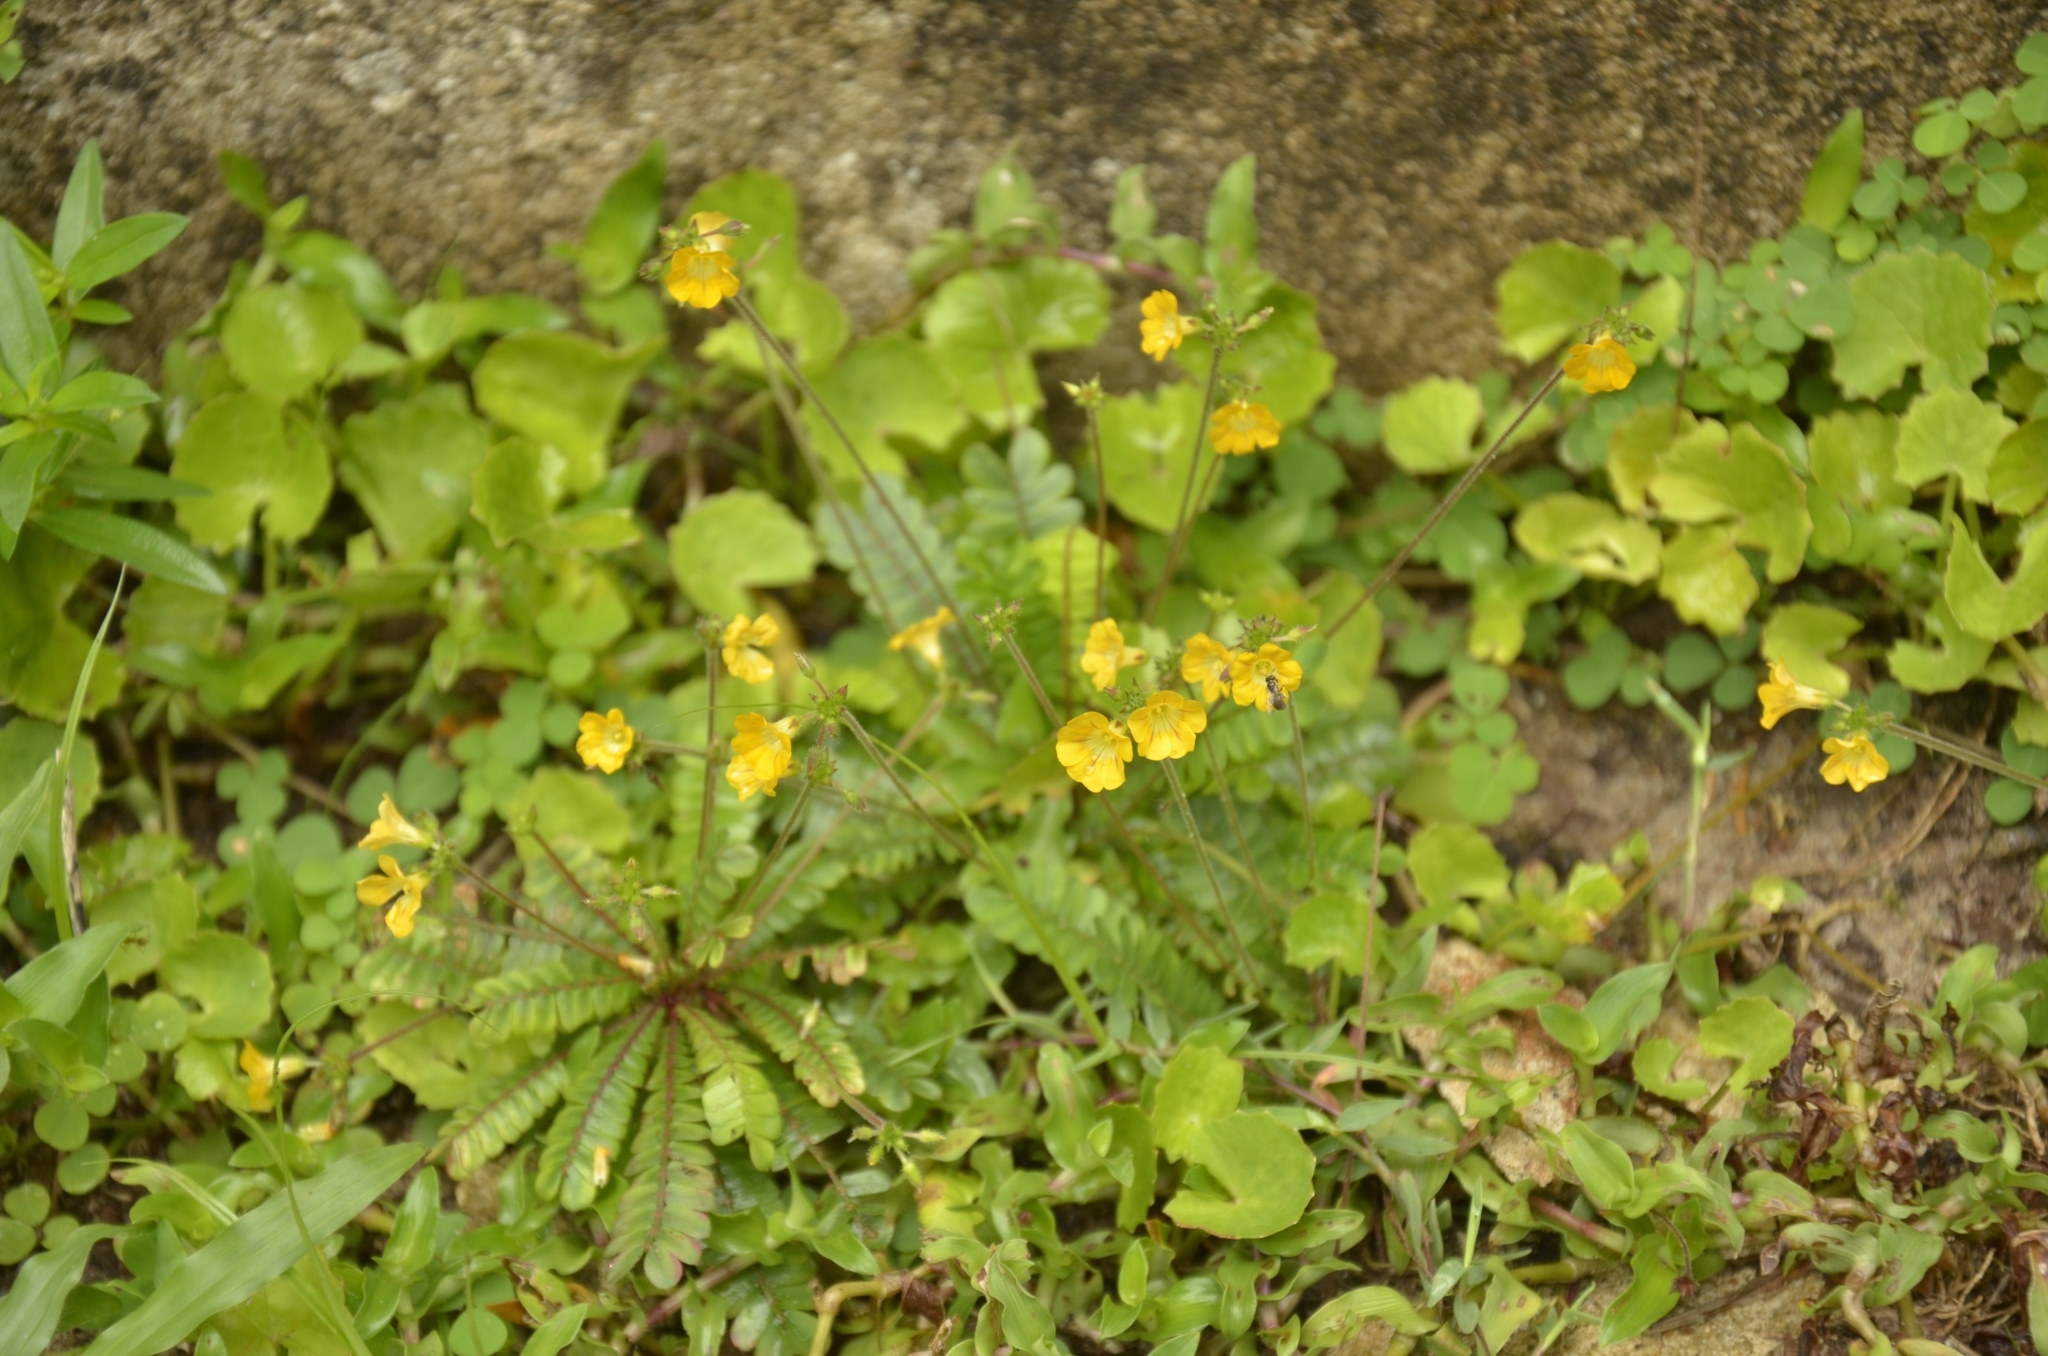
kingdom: Plantae
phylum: Tracheophyta
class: Magnoliopsida
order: Oxalidales
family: Oxalidaceae
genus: Biophytum
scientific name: Biophytum sensitivum
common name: Lifeplant
